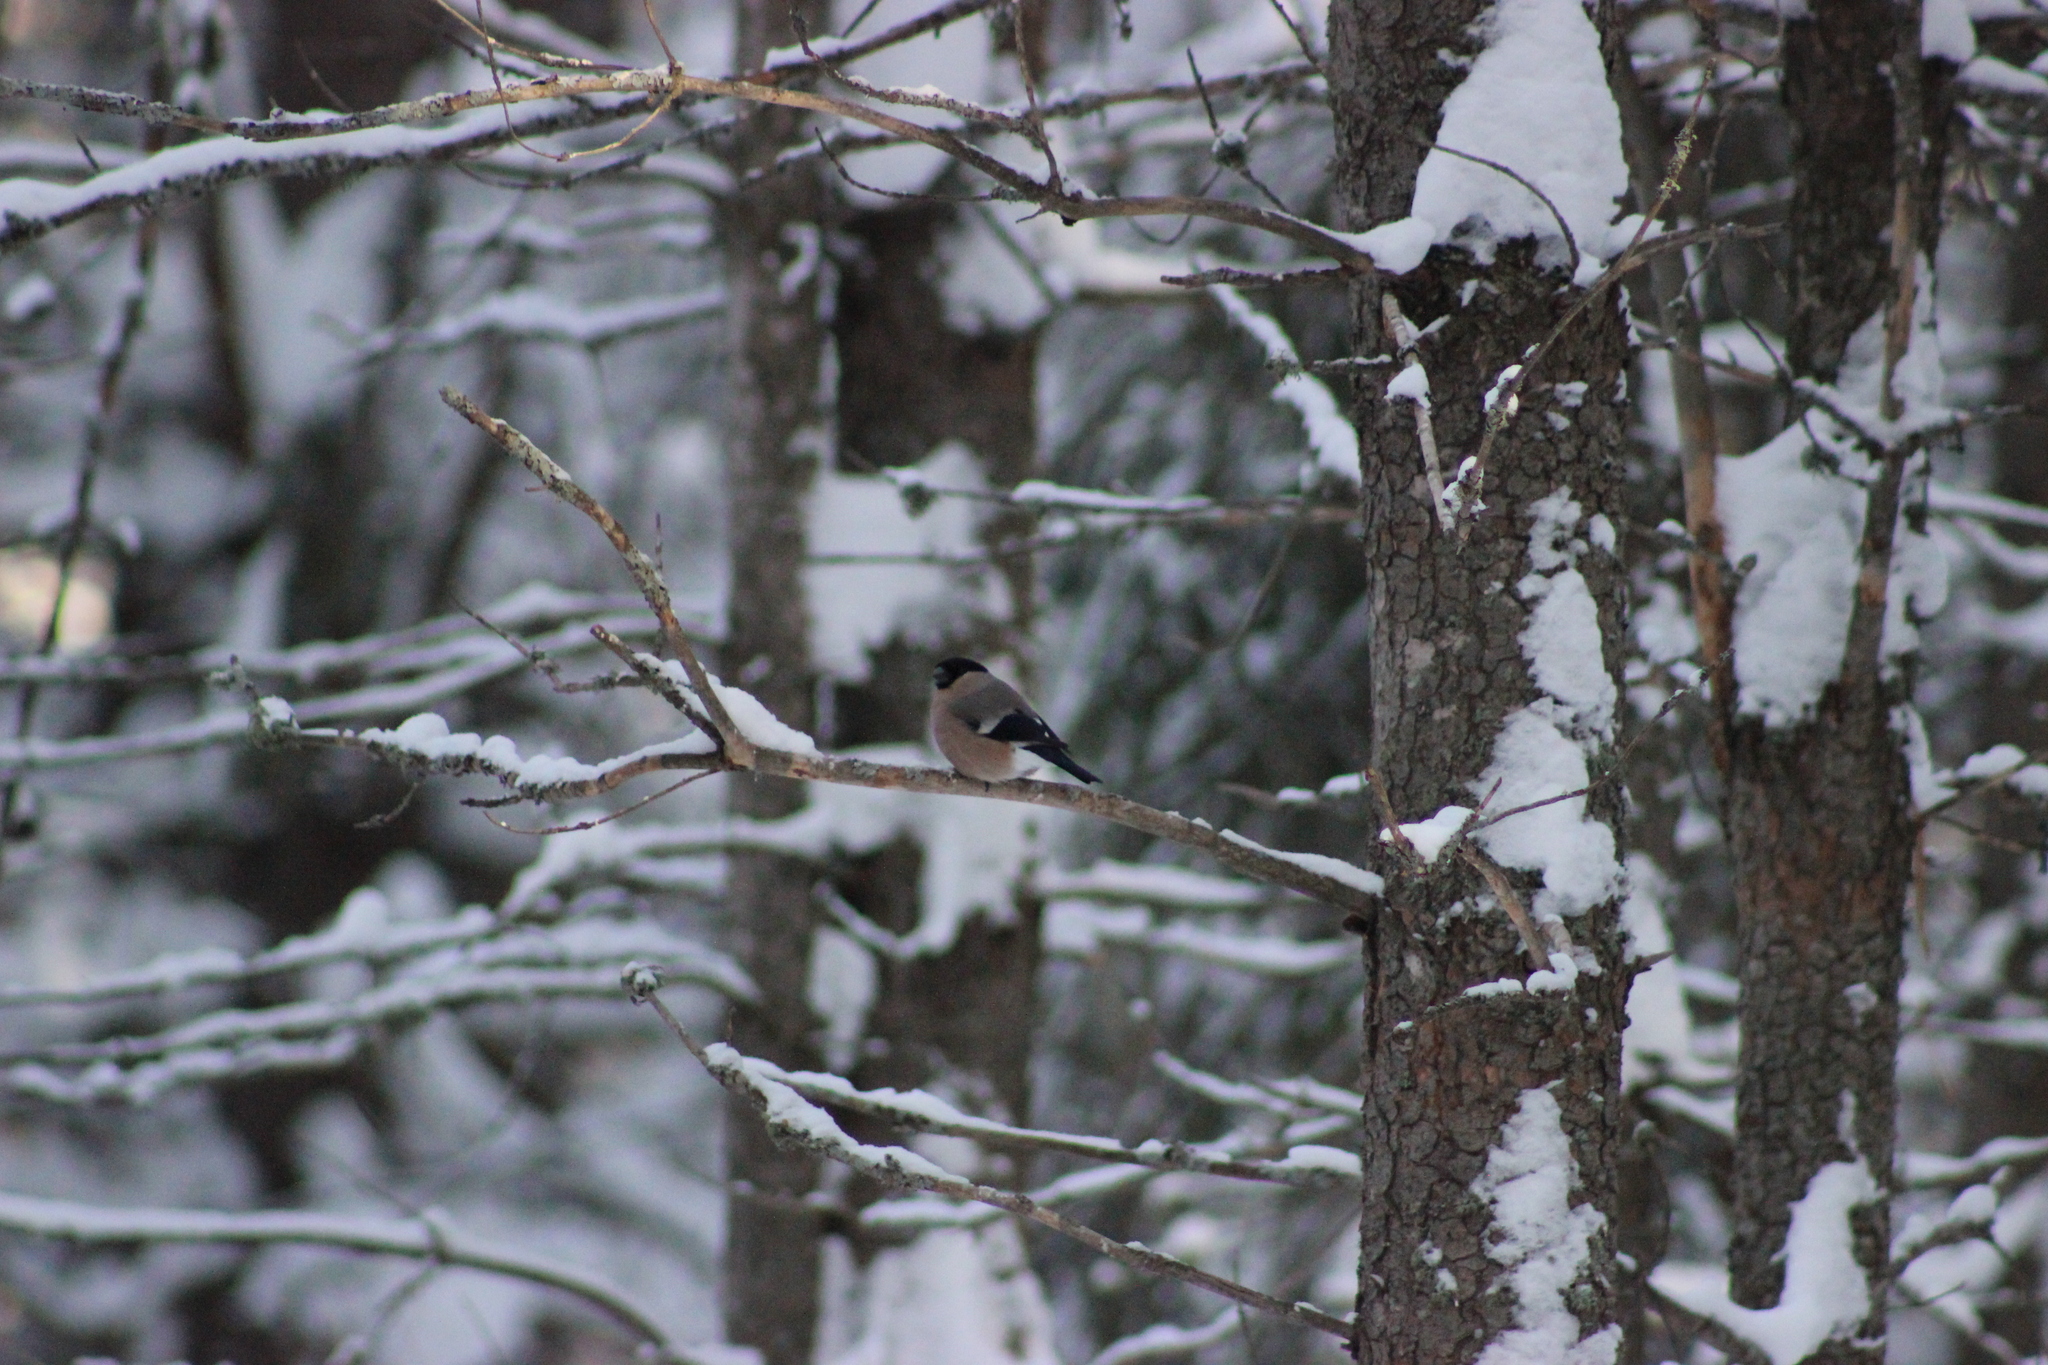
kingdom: Animalia
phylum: Chordata
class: Aves
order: Passeriformes
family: Fringillidae
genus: Pyrrhula
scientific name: Pyrrhula pyrrhula
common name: Eurasian bullfinch
